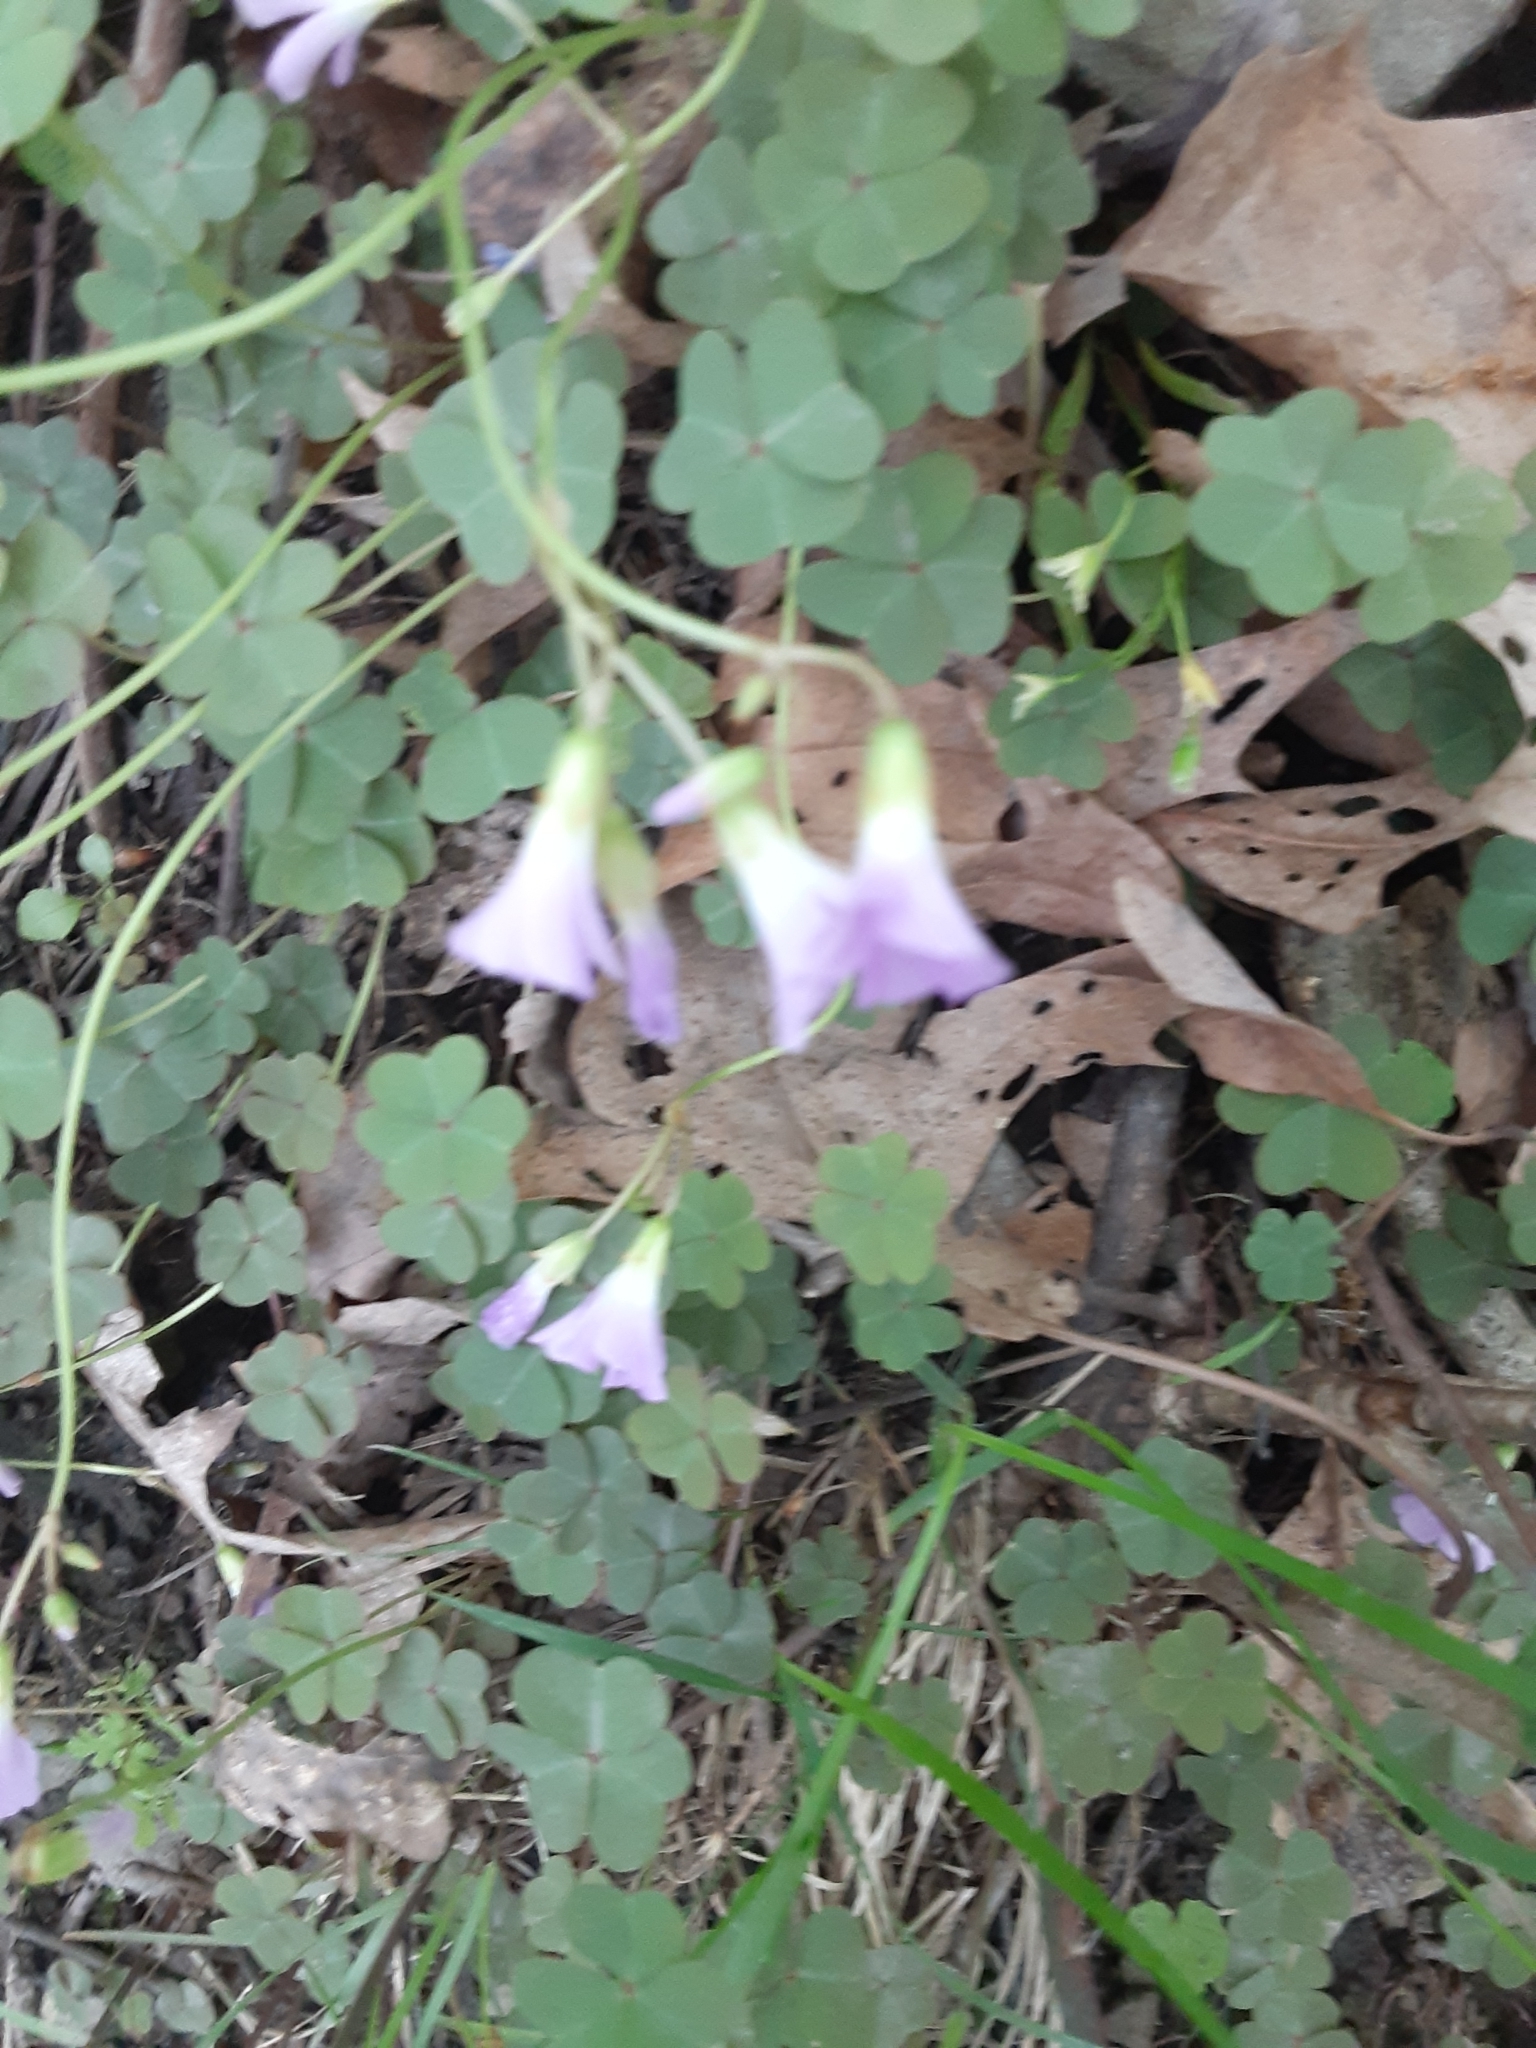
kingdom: Plantae
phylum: Tracheophyta
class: Magnoliopsida
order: Oxalidales
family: Oxalidaceae
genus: Oxalis
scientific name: Oxalis violacea
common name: Violet wood-sorrel
